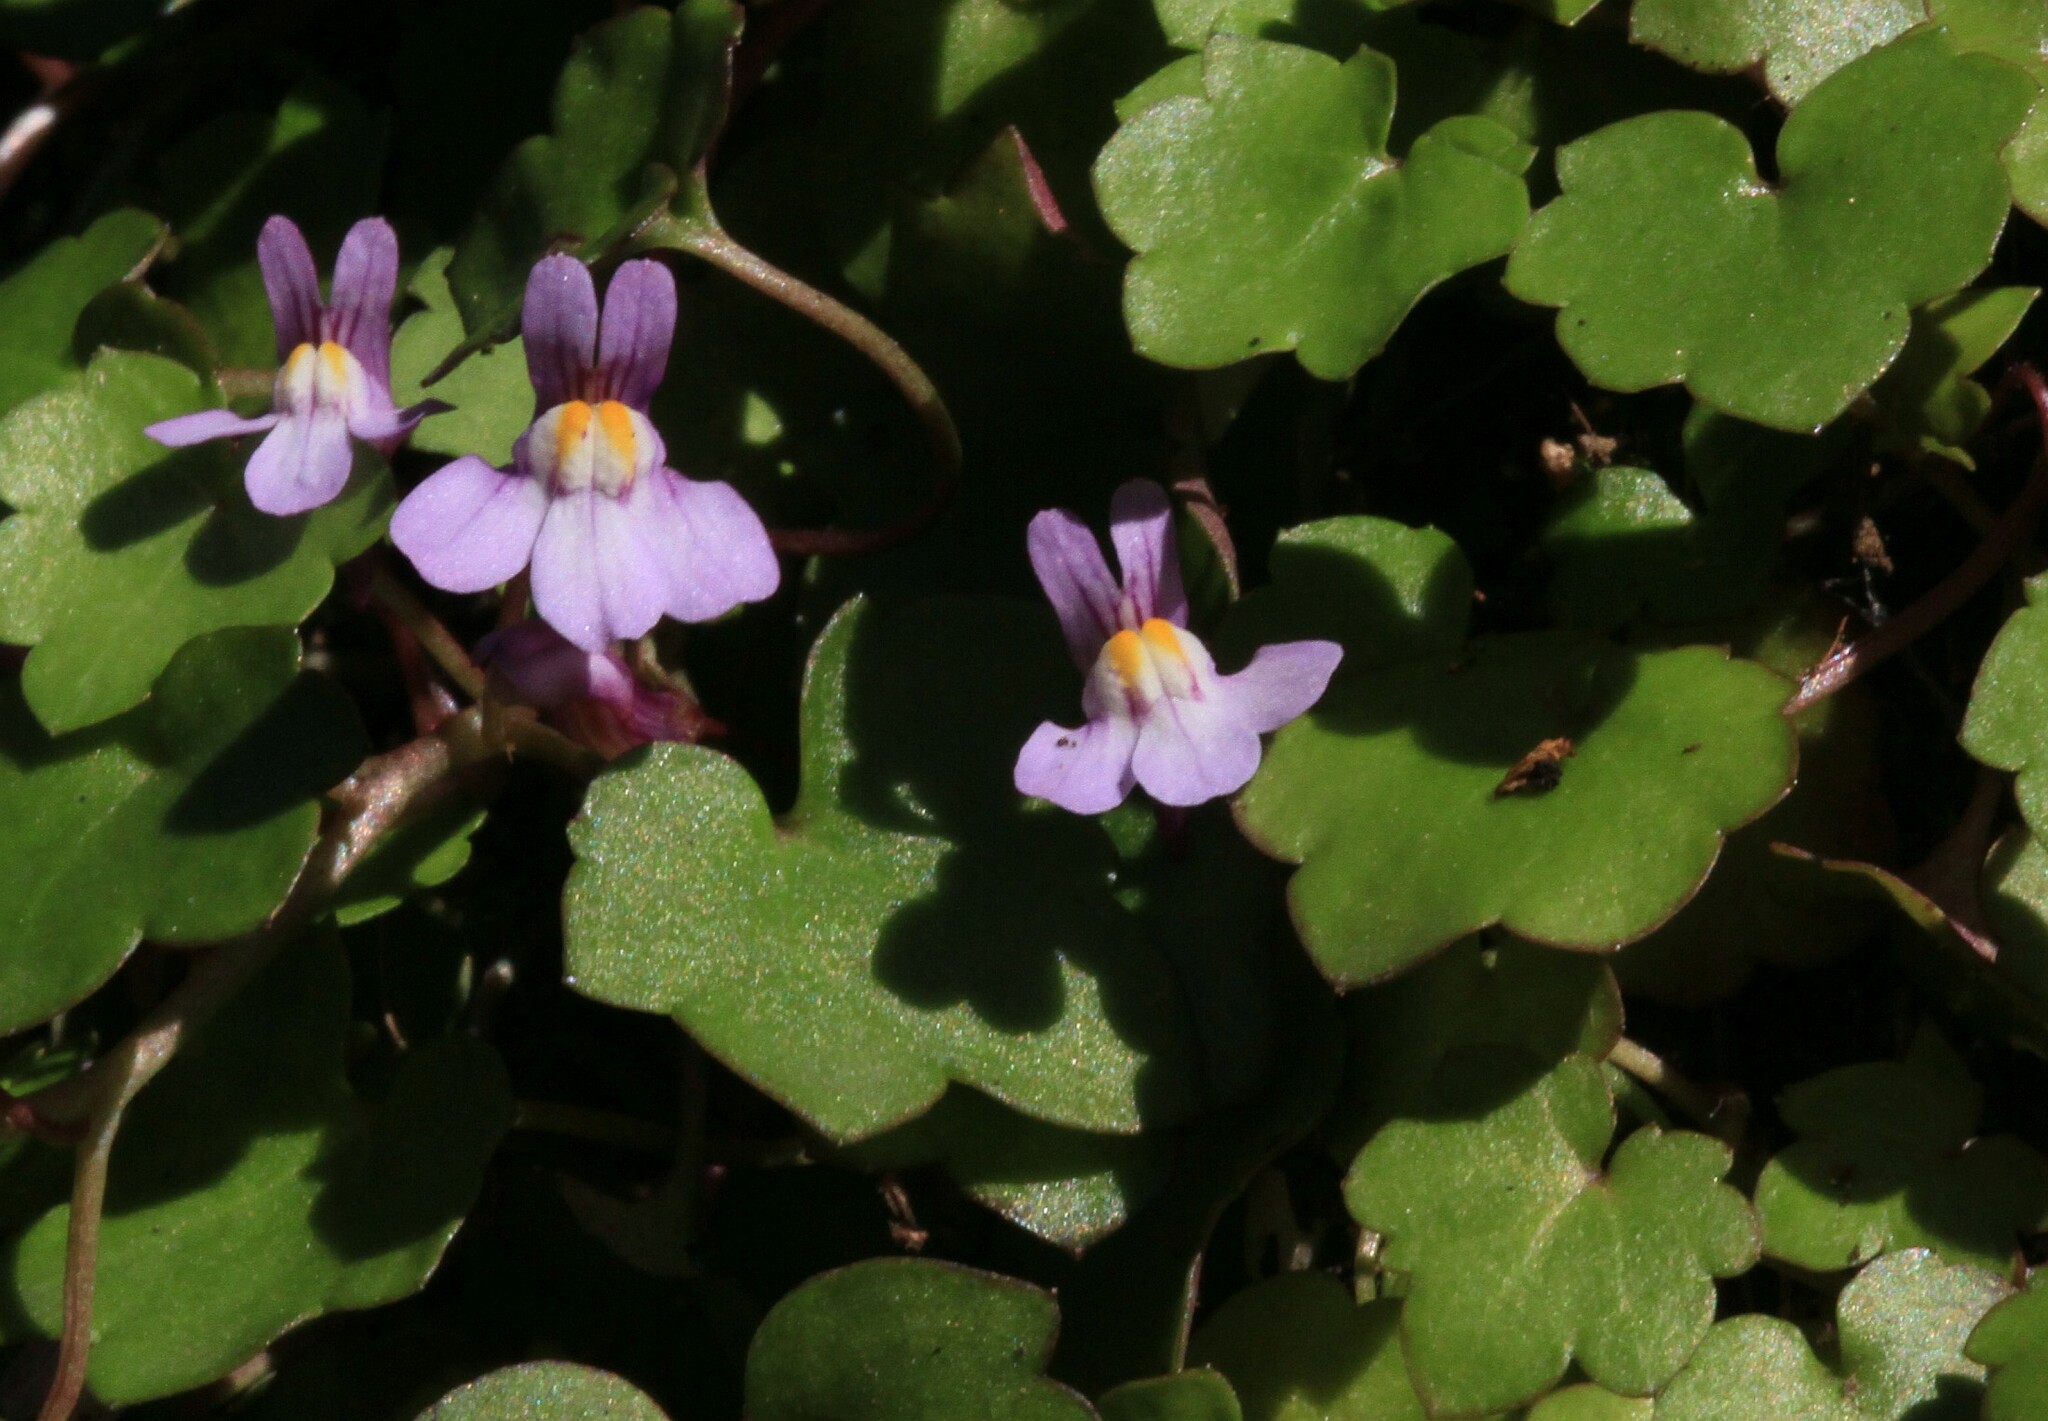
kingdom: Plantae
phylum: Tracheophyta
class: Magnoliopsida
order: Lamiales
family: Plantaginaceae
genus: Cymbalaria
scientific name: Cymbalaria muralis
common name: Ivy-leaved toadflax
